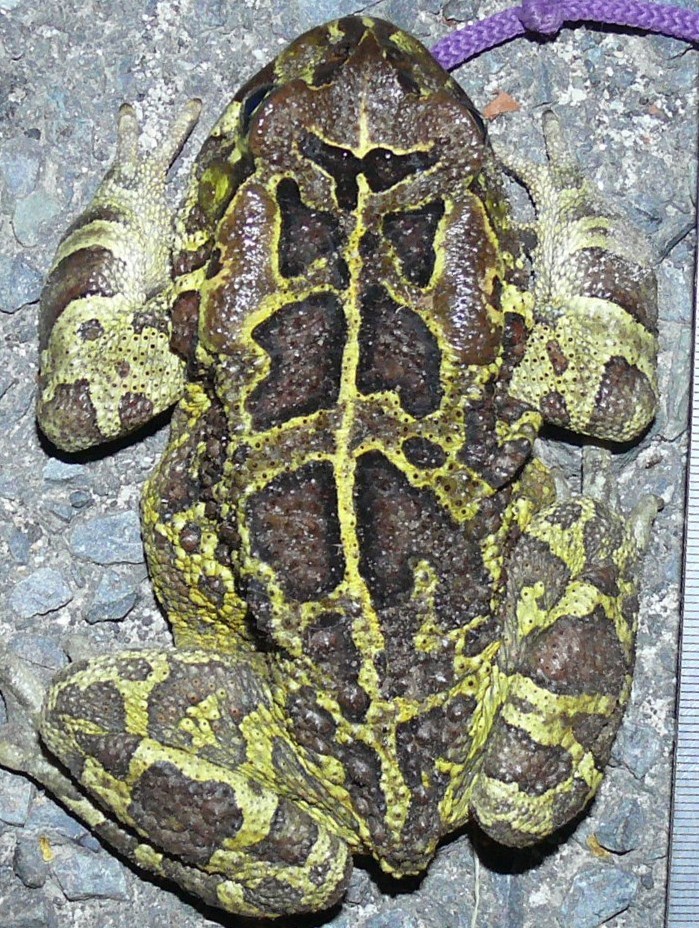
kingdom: Animalia
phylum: Chordata
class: Amphibia
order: Anura
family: Bufonidae
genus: Sclerophrys
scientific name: Sclerophrys pantherina
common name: Panther toad
